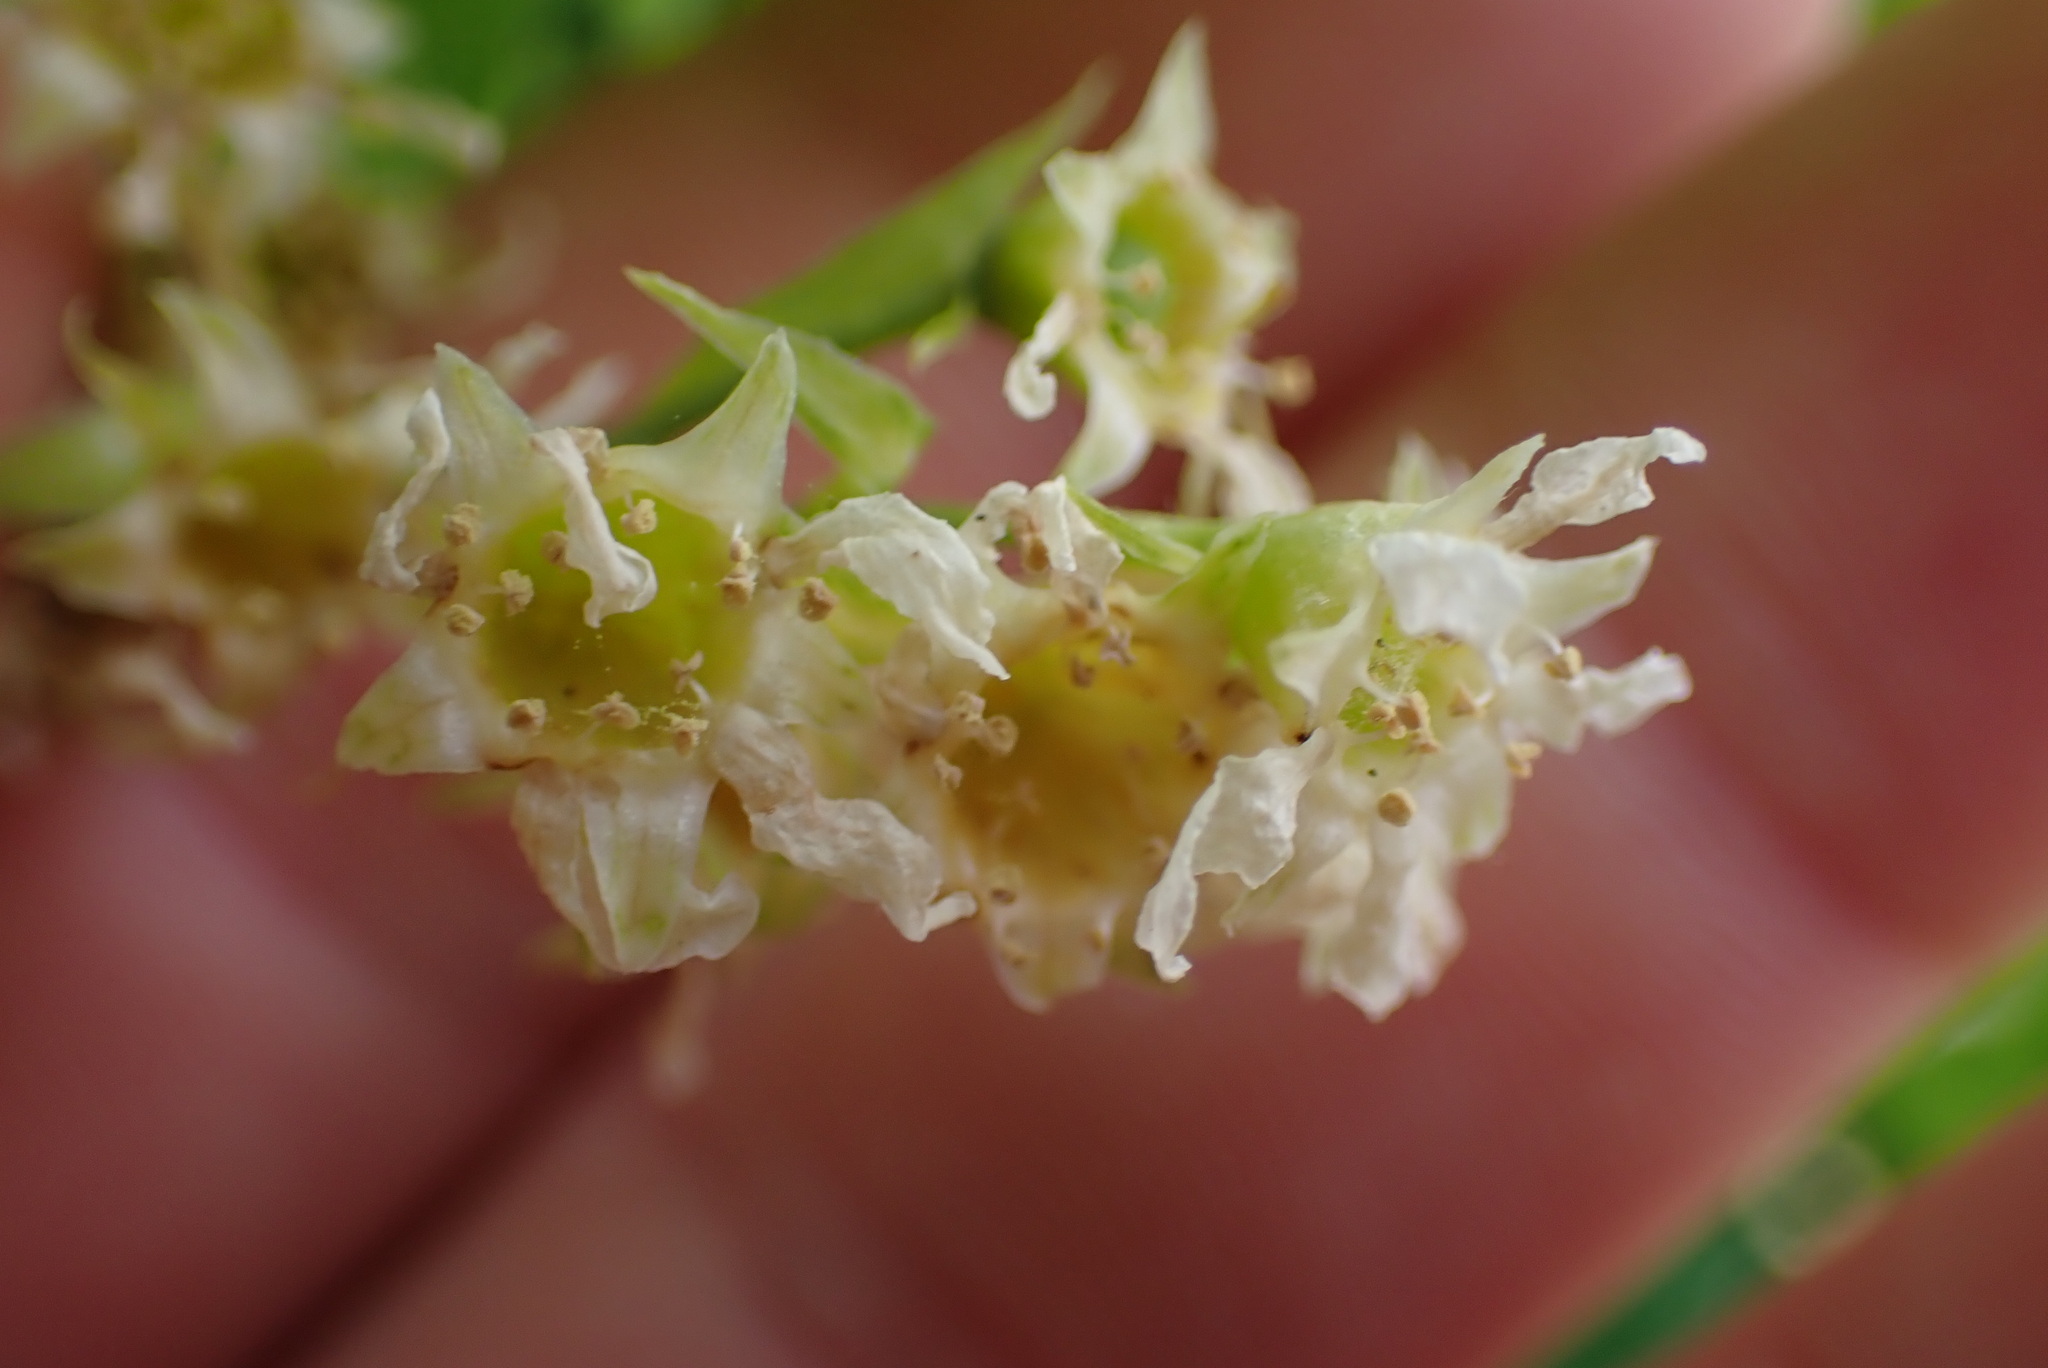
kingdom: Plantae
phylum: Tracheophyta
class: Magnoliopsida
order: Rosales
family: Rosaceae
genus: Oemleria
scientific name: Oemleria cerasiformis
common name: Osoberry
